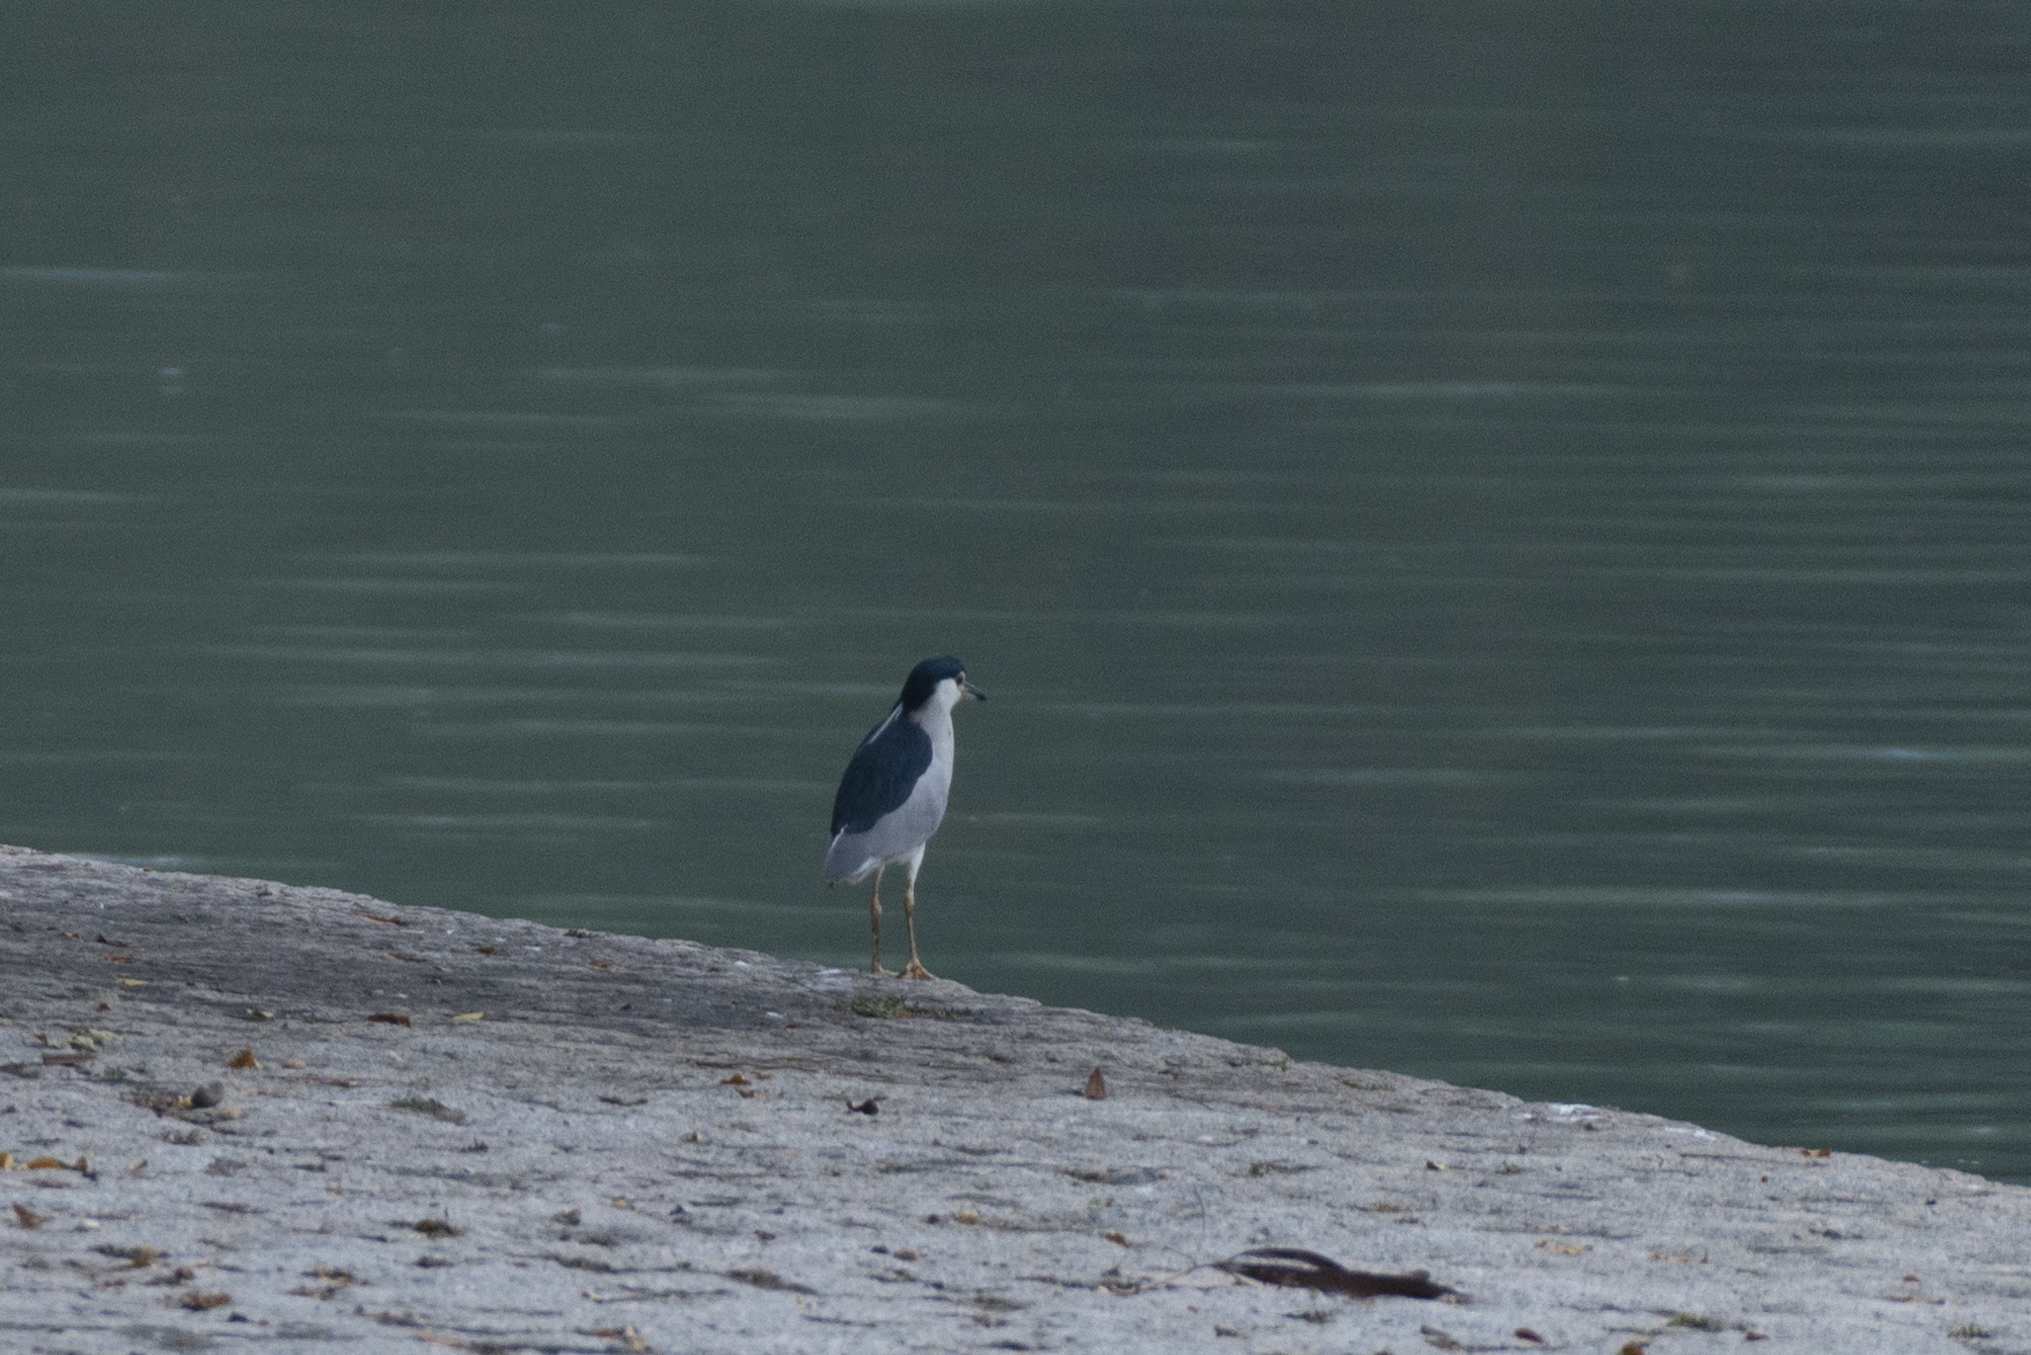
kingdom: Animalia
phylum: Chordata
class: Aves
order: Pelecaniformes
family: Ardeidae
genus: Nycticorax
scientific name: Nycticorax nycticorax
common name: Black-crowned night heron
